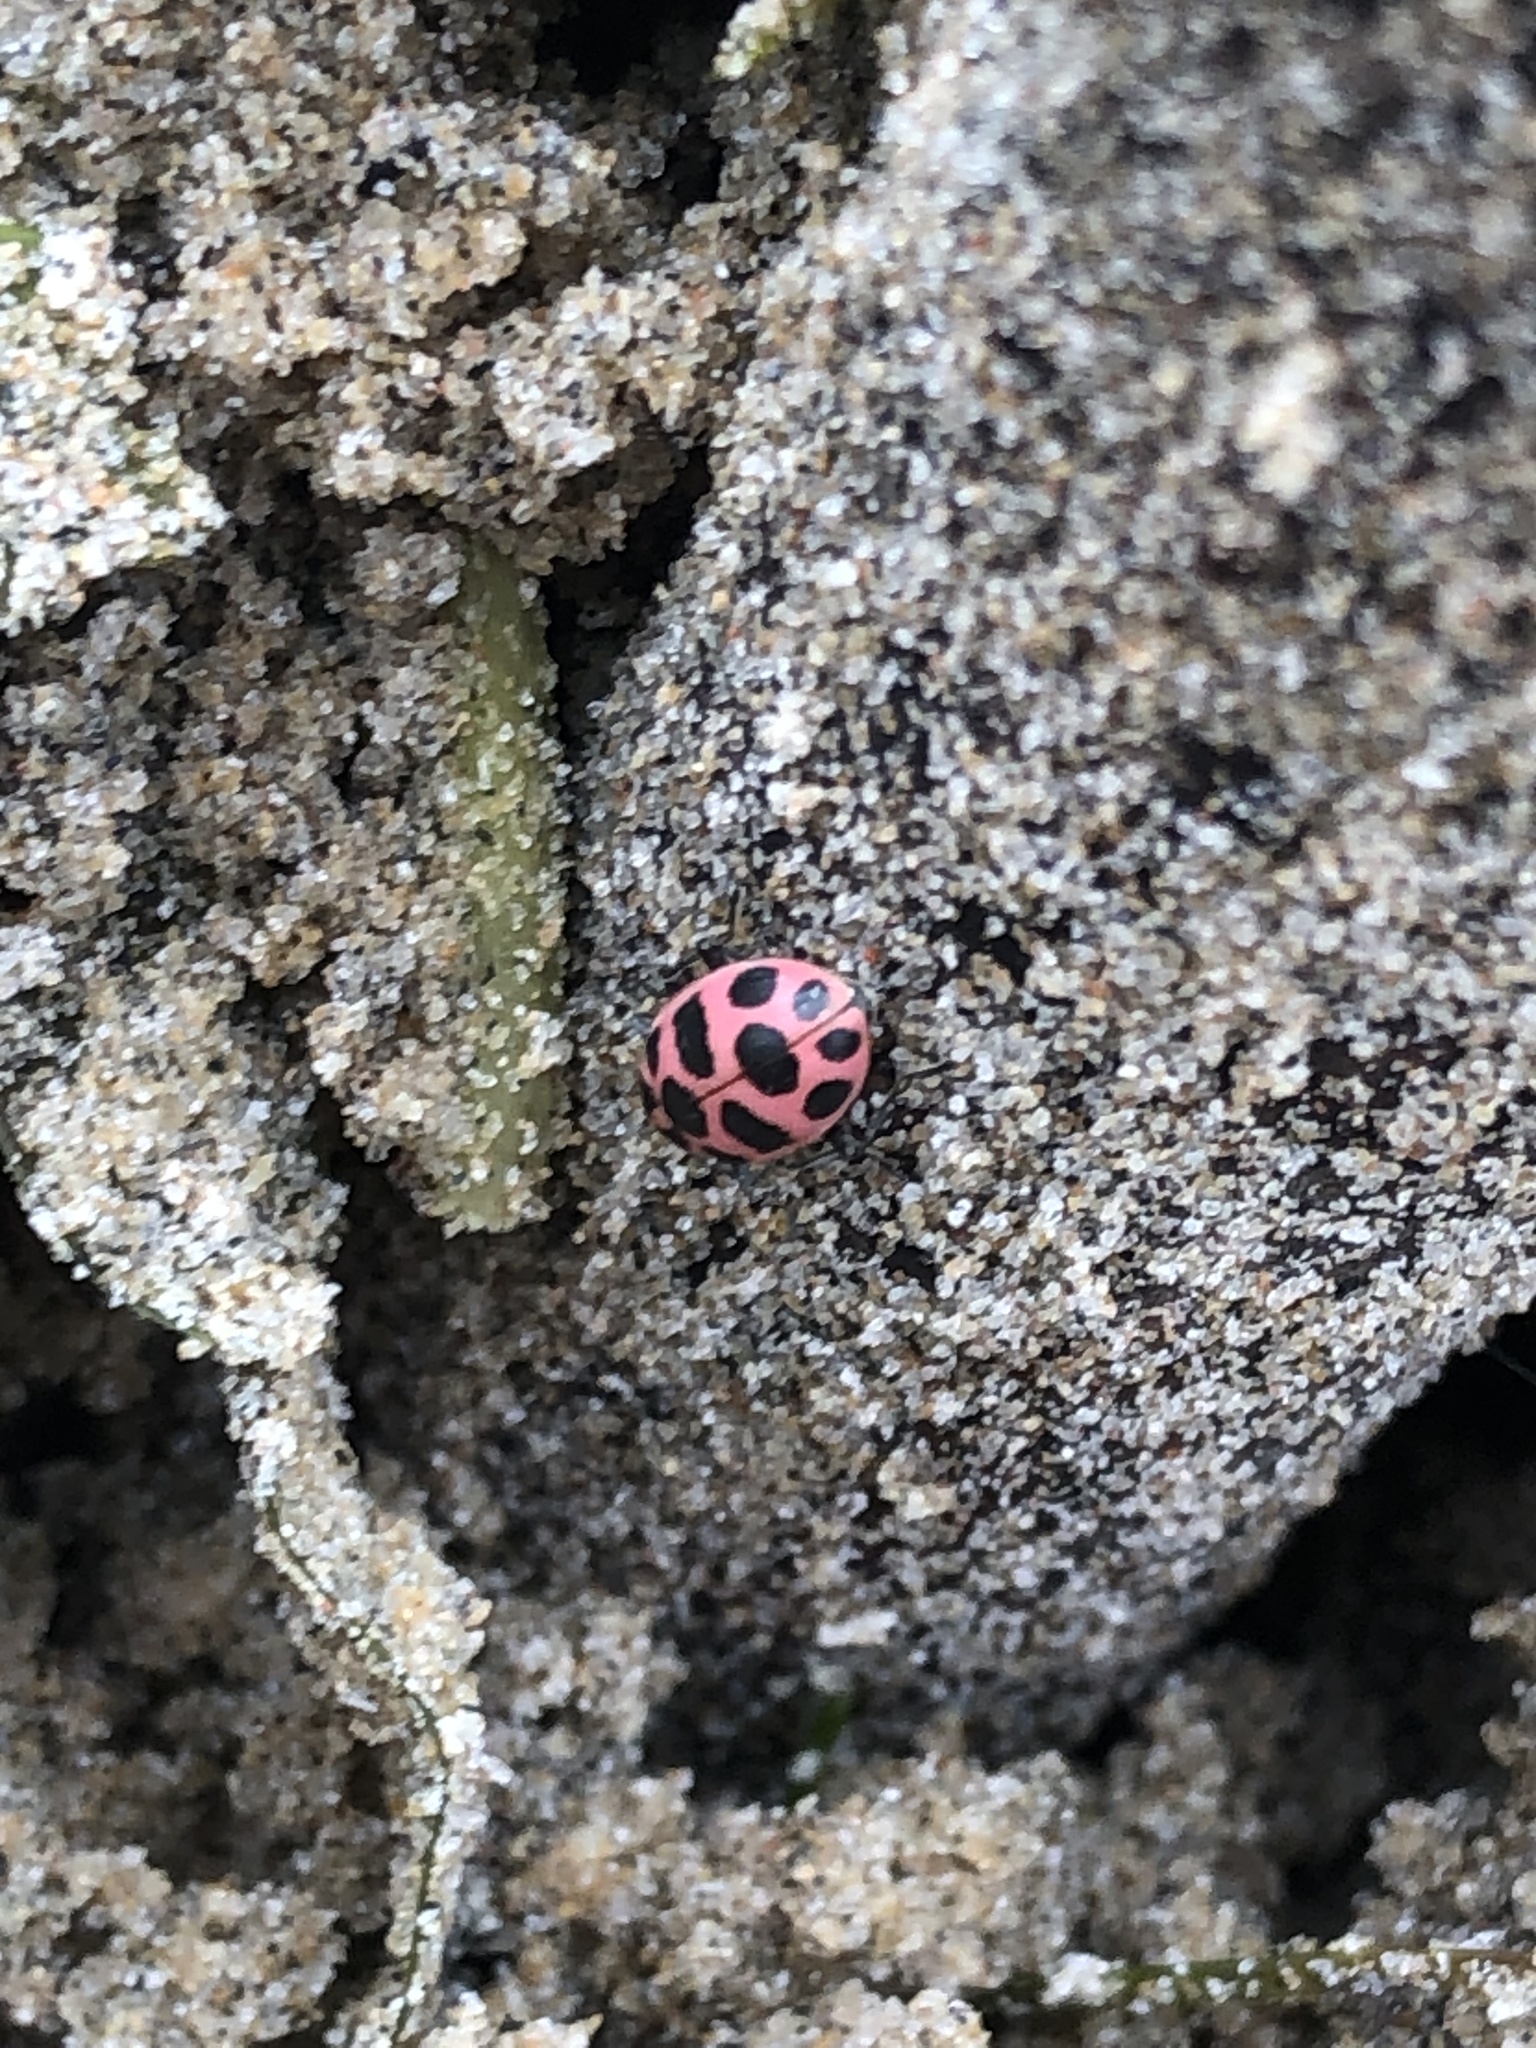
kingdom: Animalia
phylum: Arthropoda
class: Insecta
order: Coleoptera
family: Coccinellidae
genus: Coleomegilla
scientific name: Coleomegilla maculata
